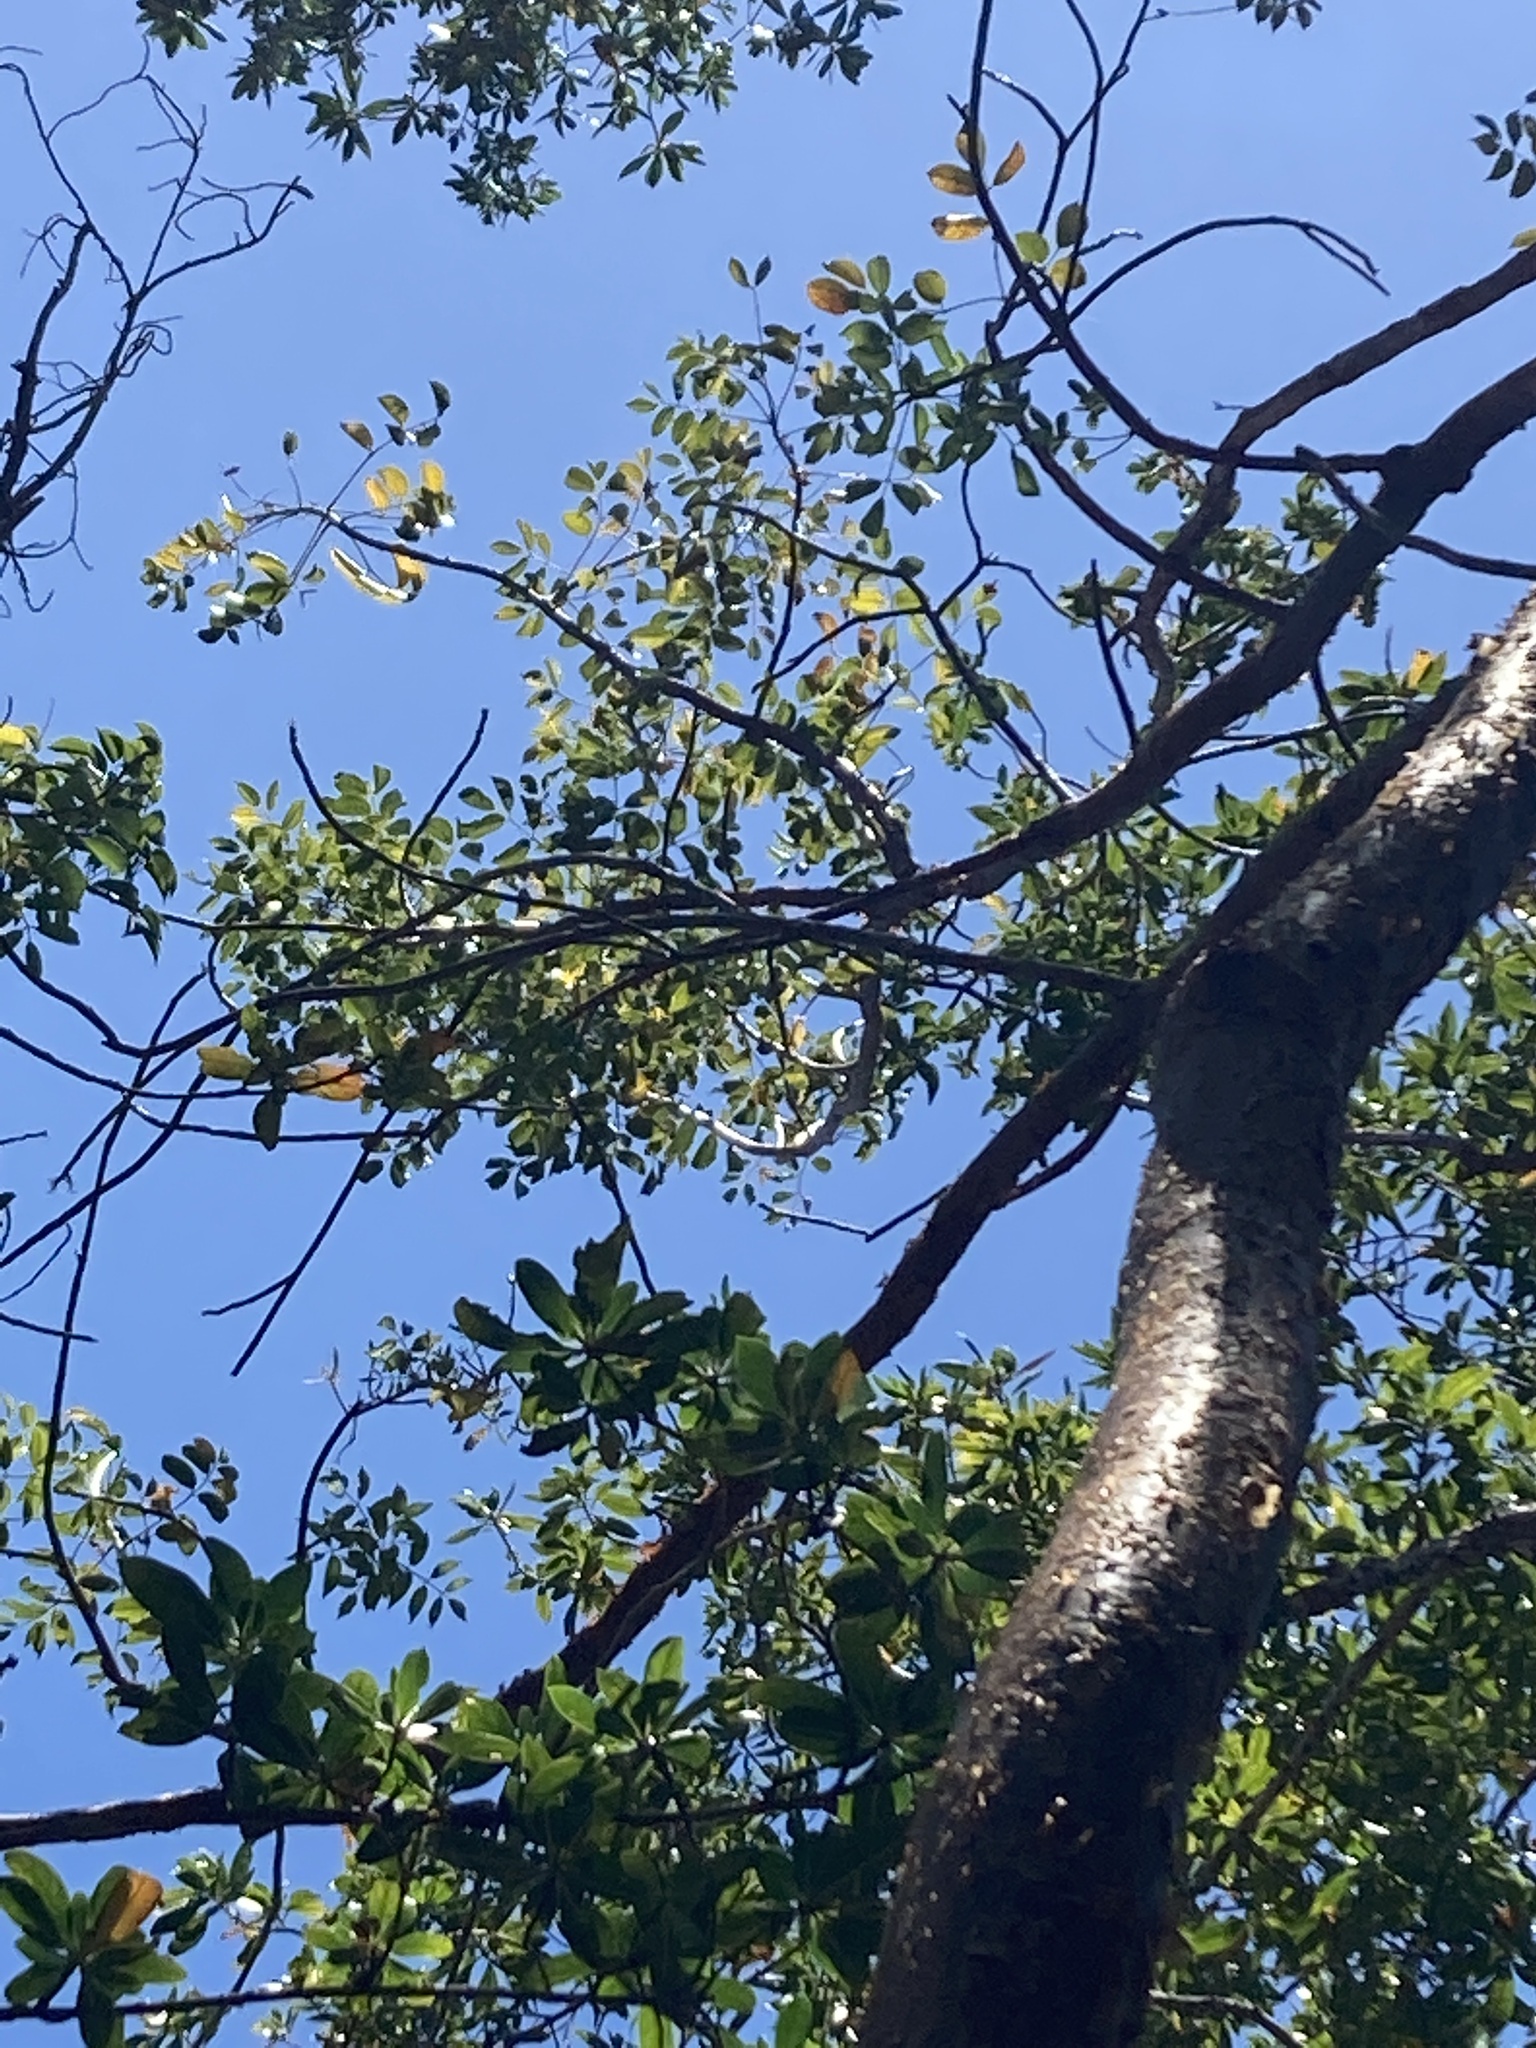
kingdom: Plantae
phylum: Tracheophyta
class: Magnoliopsida
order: Sapindales
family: Burseraceae
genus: Bursera
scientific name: Bursera simaruba
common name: Turpentine tree
